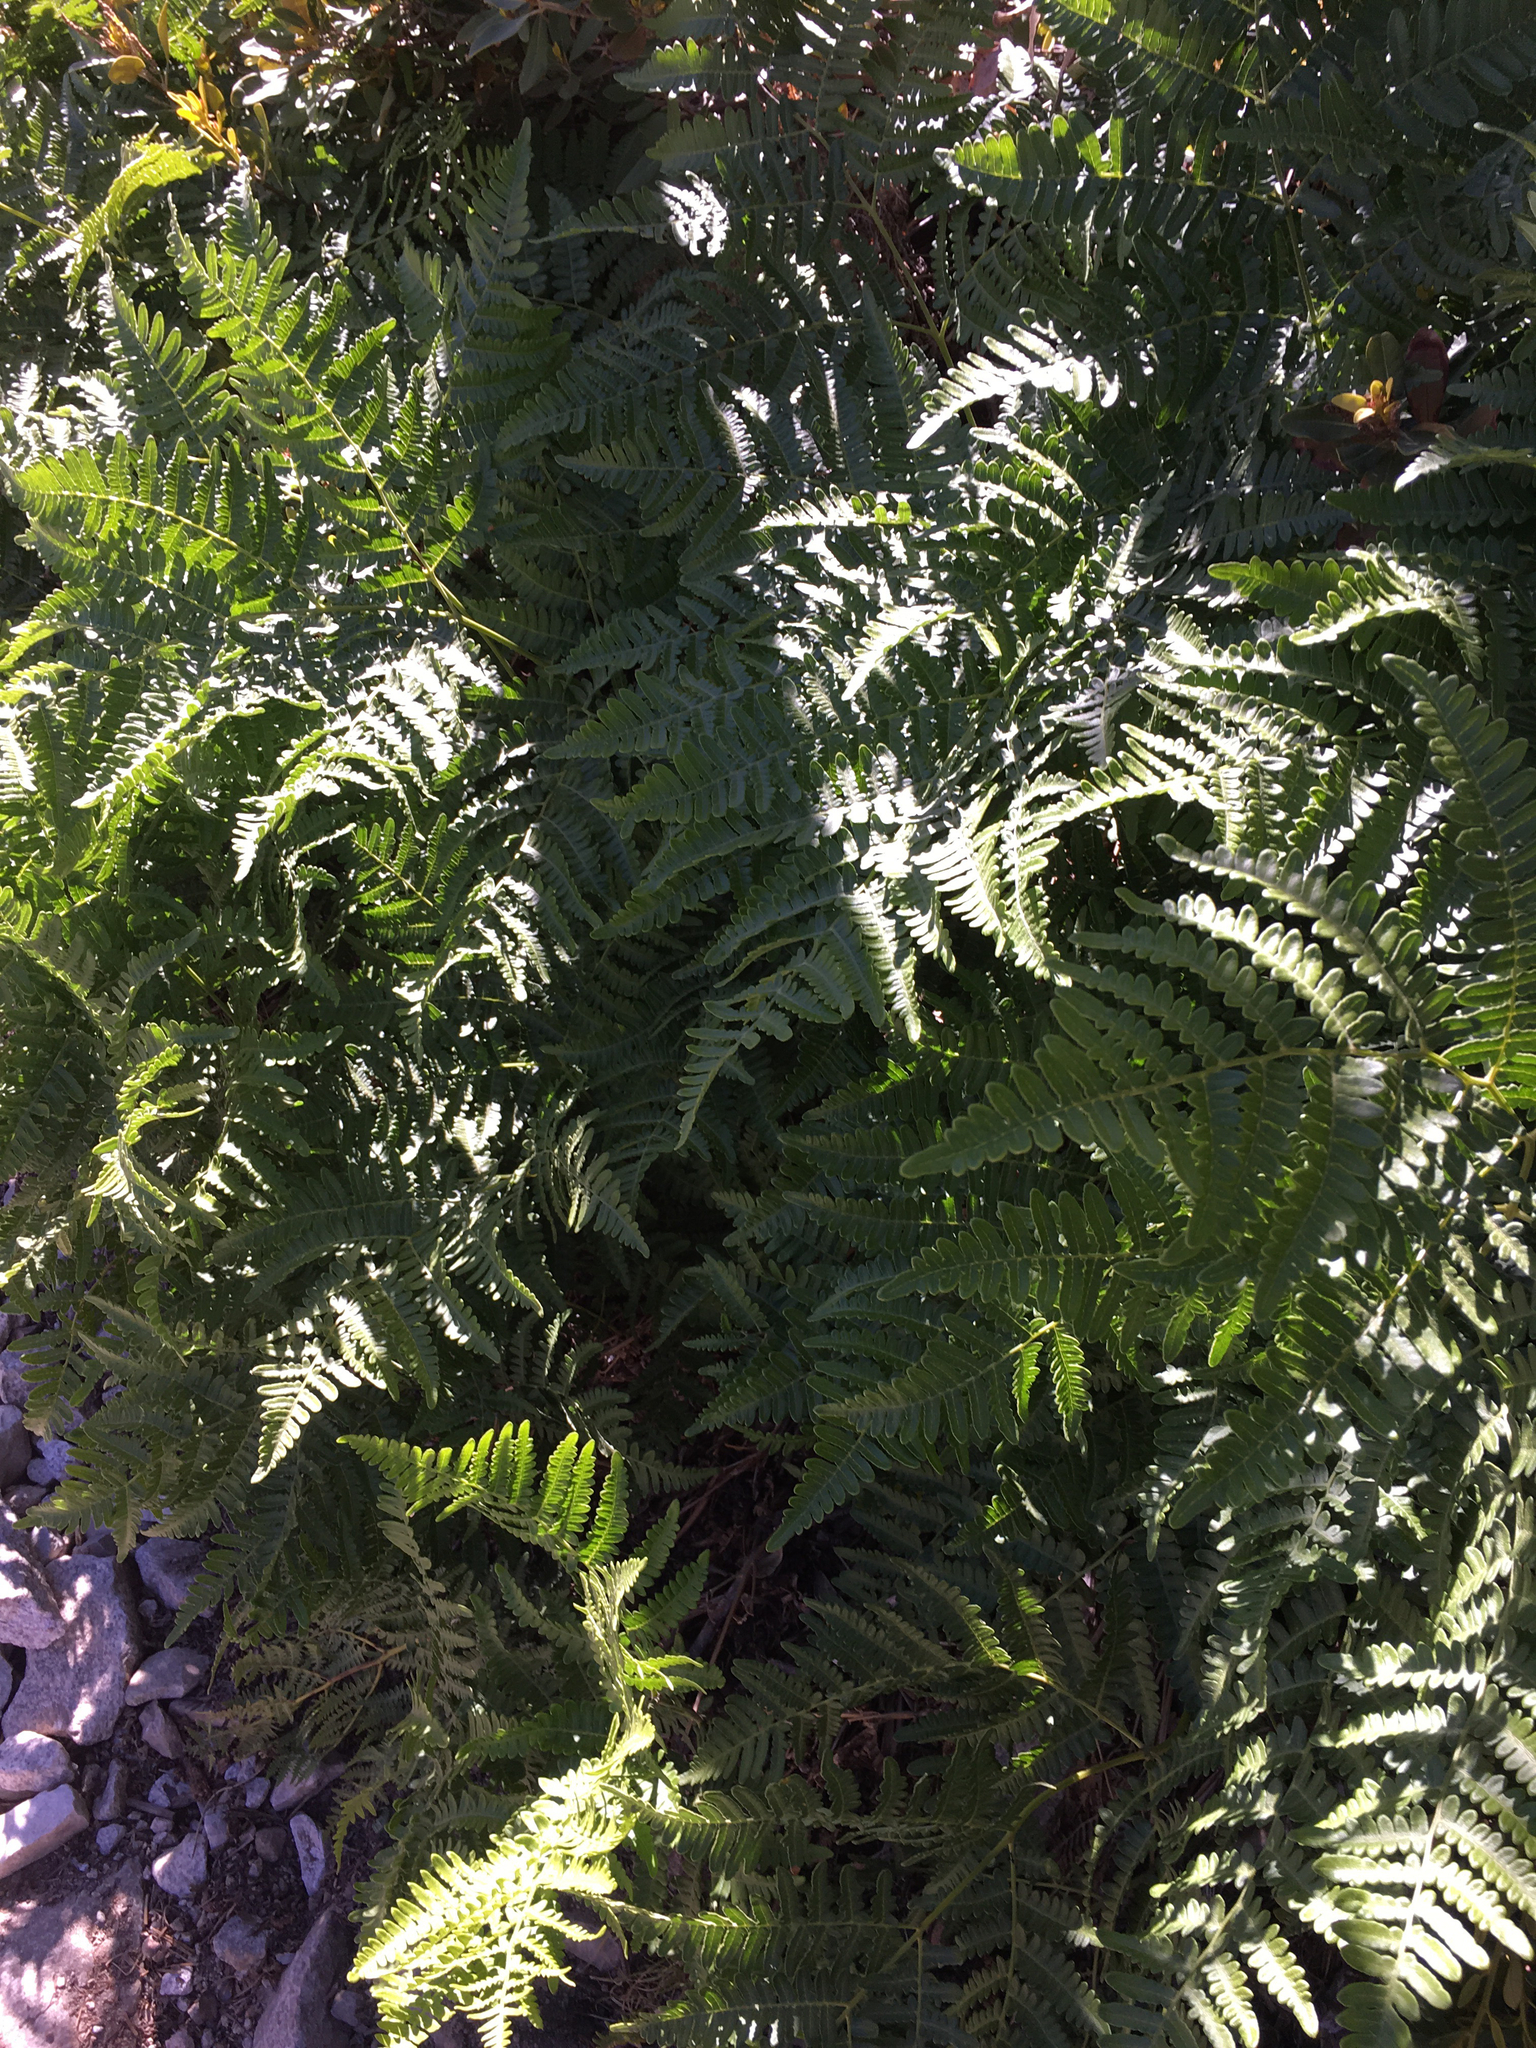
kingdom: Plantae
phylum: Tracheophyta
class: Polypodiopsida
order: Polypodiales
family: Dennstaedtiaceae
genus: Pteridium
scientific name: Pteridium aquilinum
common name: Bracken
